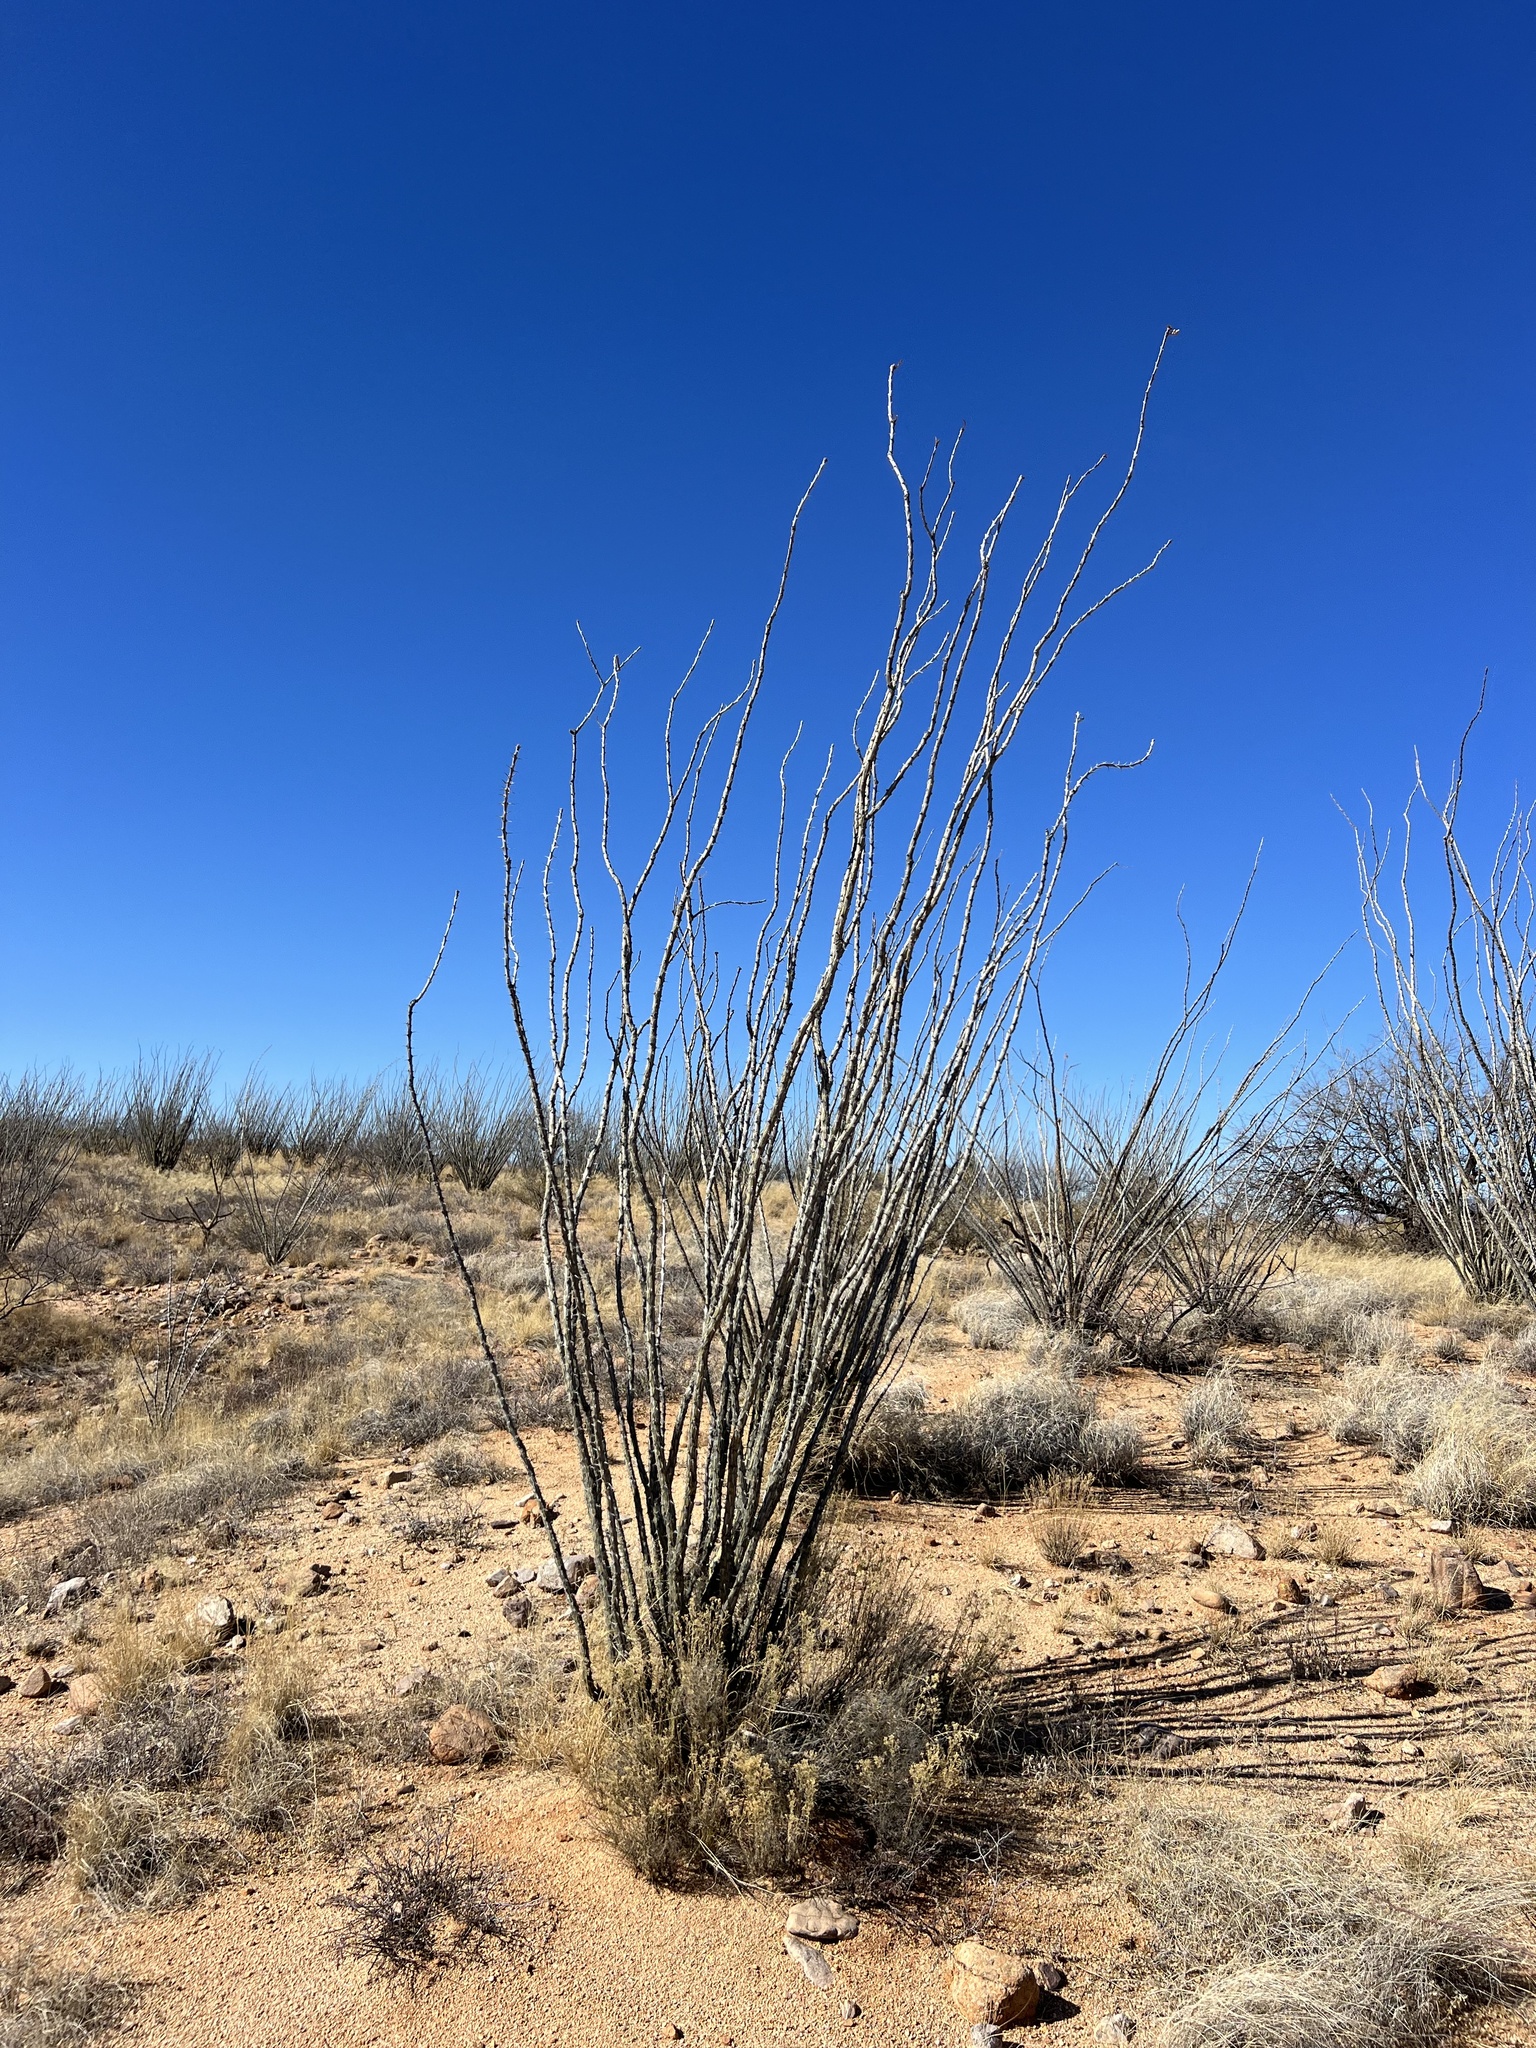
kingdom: Plantae
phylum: Tracheophyta
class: Magnoliopsida
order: Ericales
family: Fouquieriaceae
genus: Fouquieria
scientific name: Fouquieria splendens
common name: Vine-cactus
